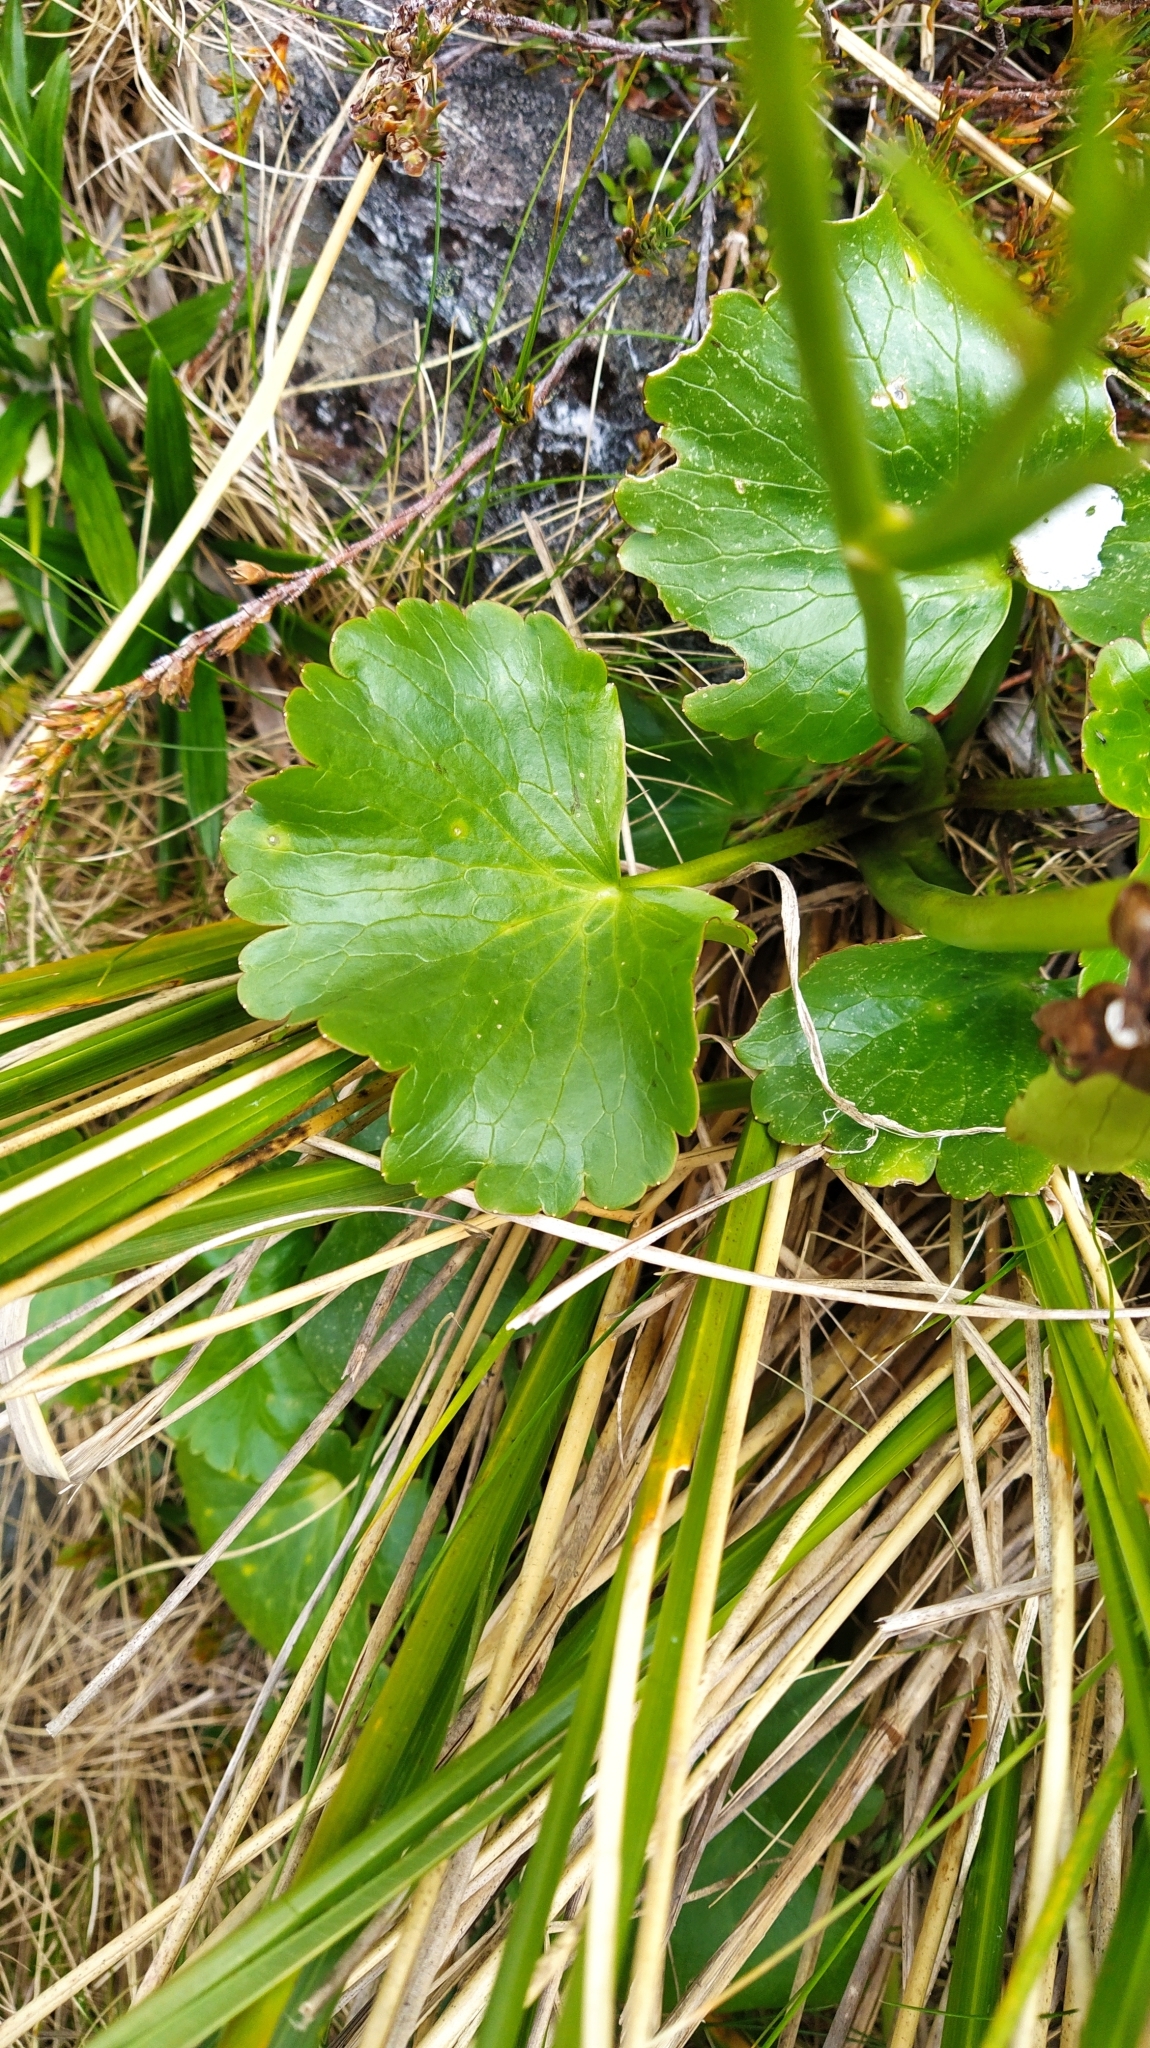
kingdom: Plantae
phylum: Tracheophyta
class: Magnoliopsida
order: Ranunculales
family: Ranunculaceae
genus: Ranunculus
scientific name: Ranunculus insignis
